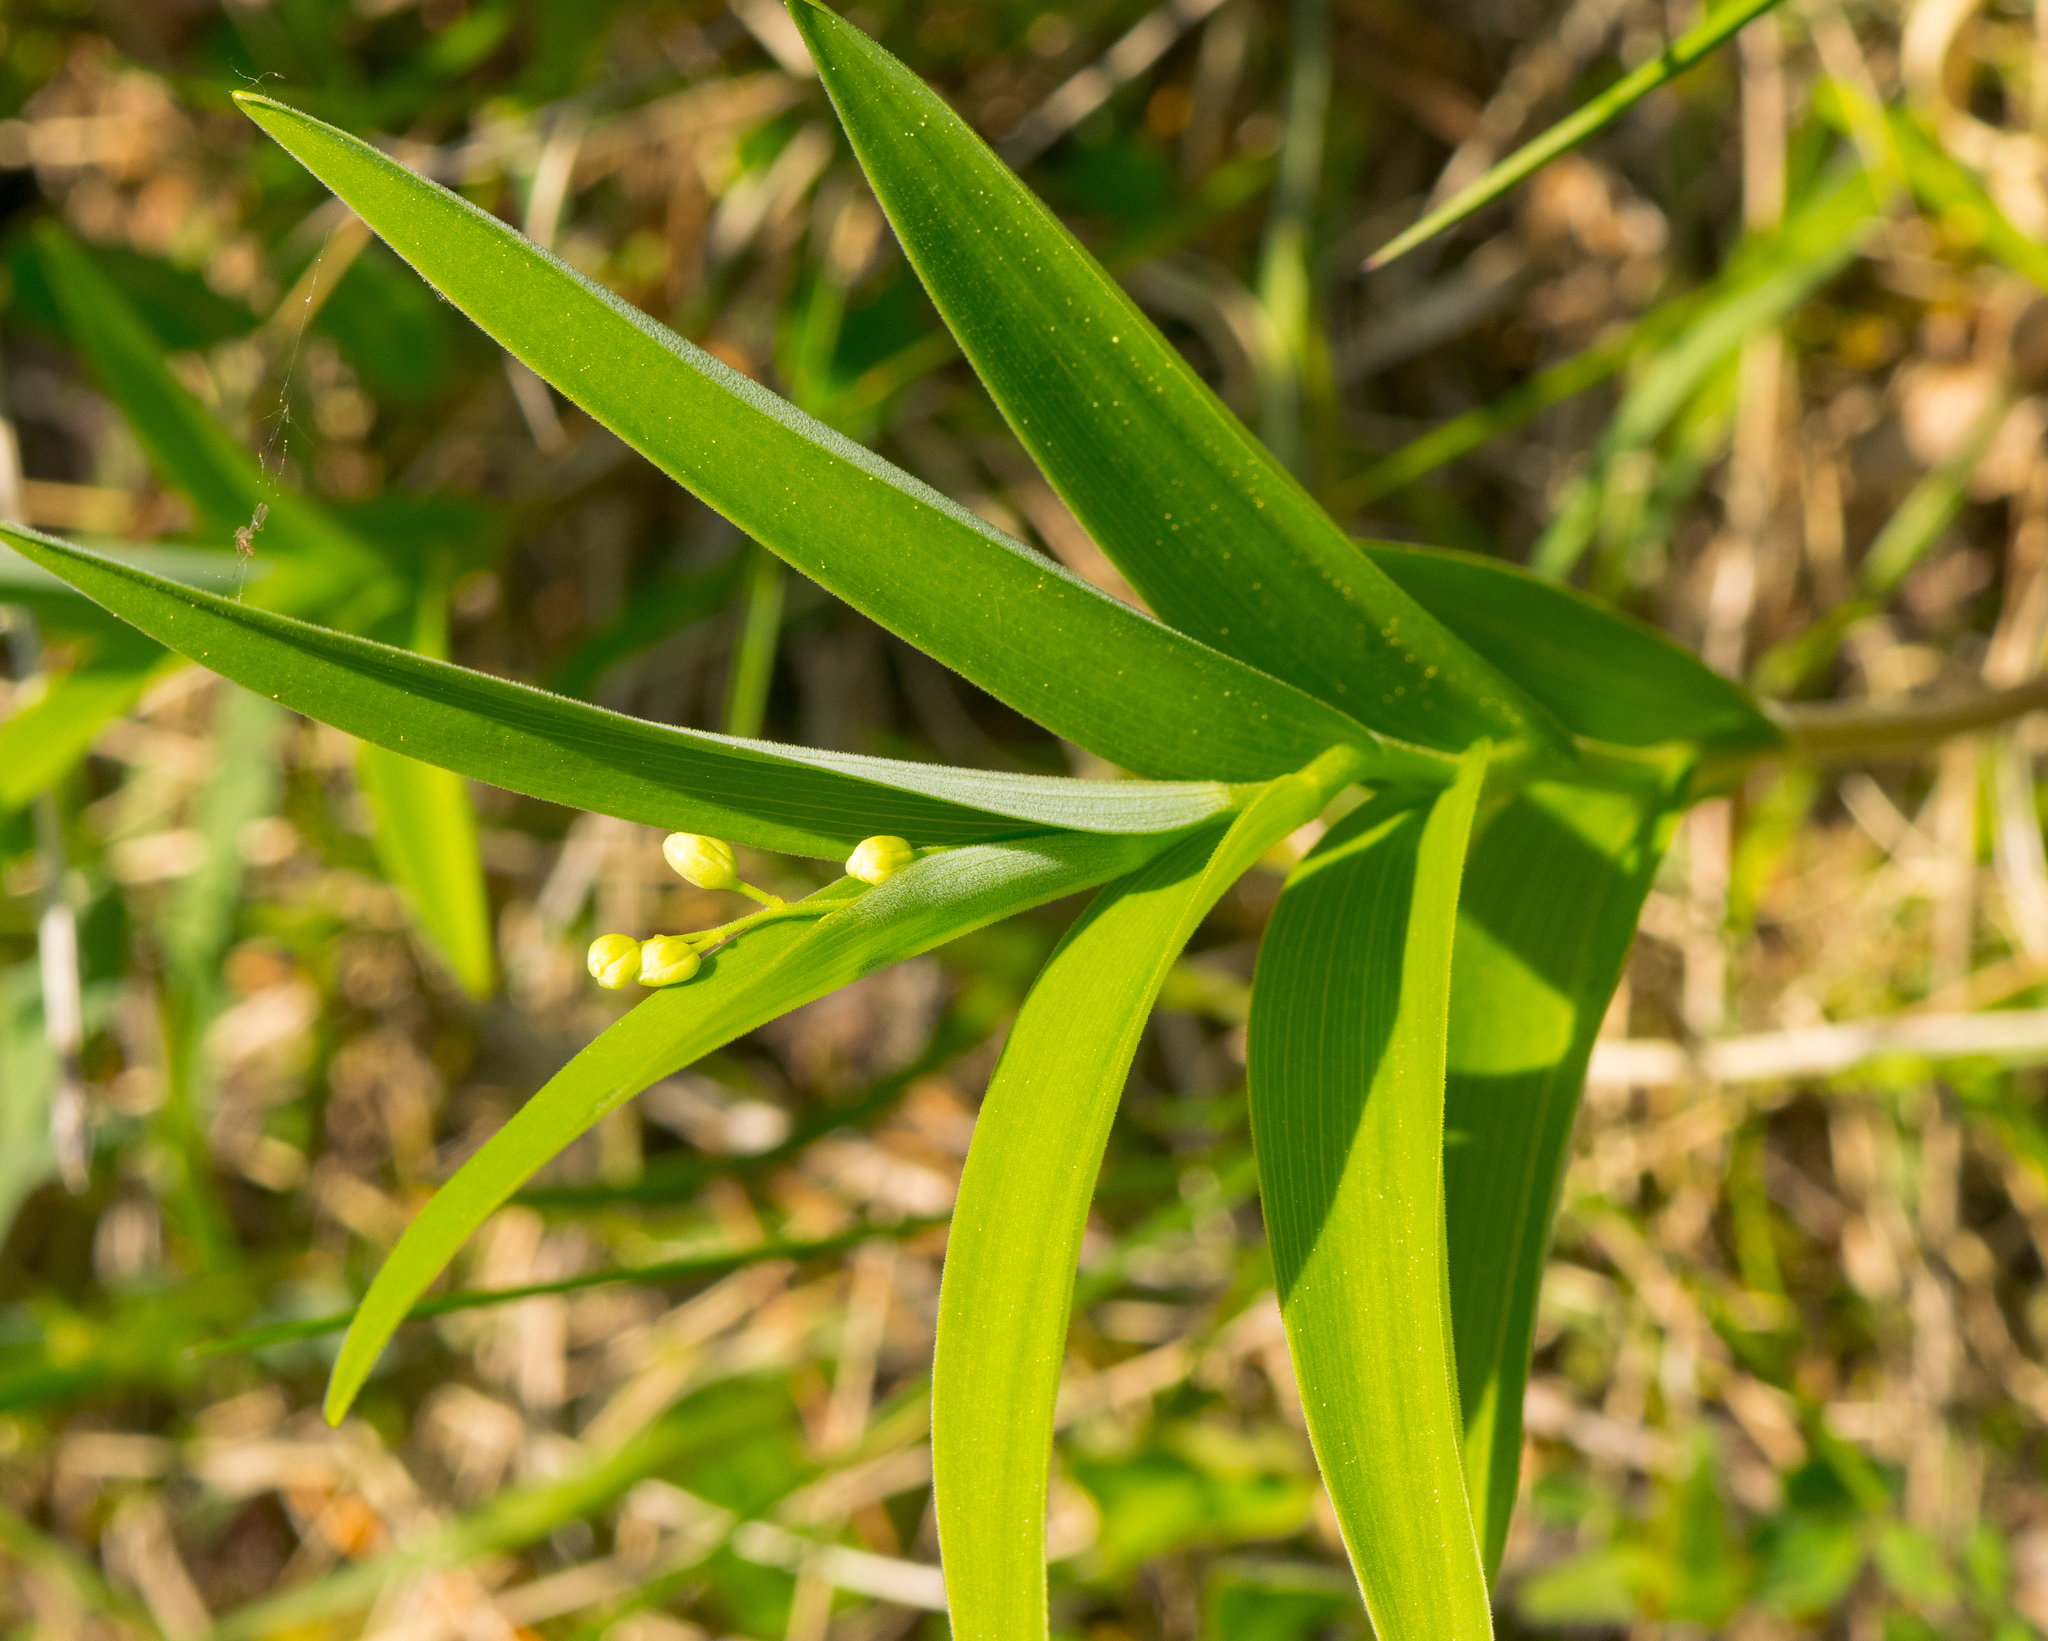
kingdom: Plantae
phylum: Tracheophyta
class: Liliopsida
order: Asparagales
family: Asparagaceae
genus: Maianthemum
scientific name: Maianthemum stellatum
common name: Little false solomon's seal
